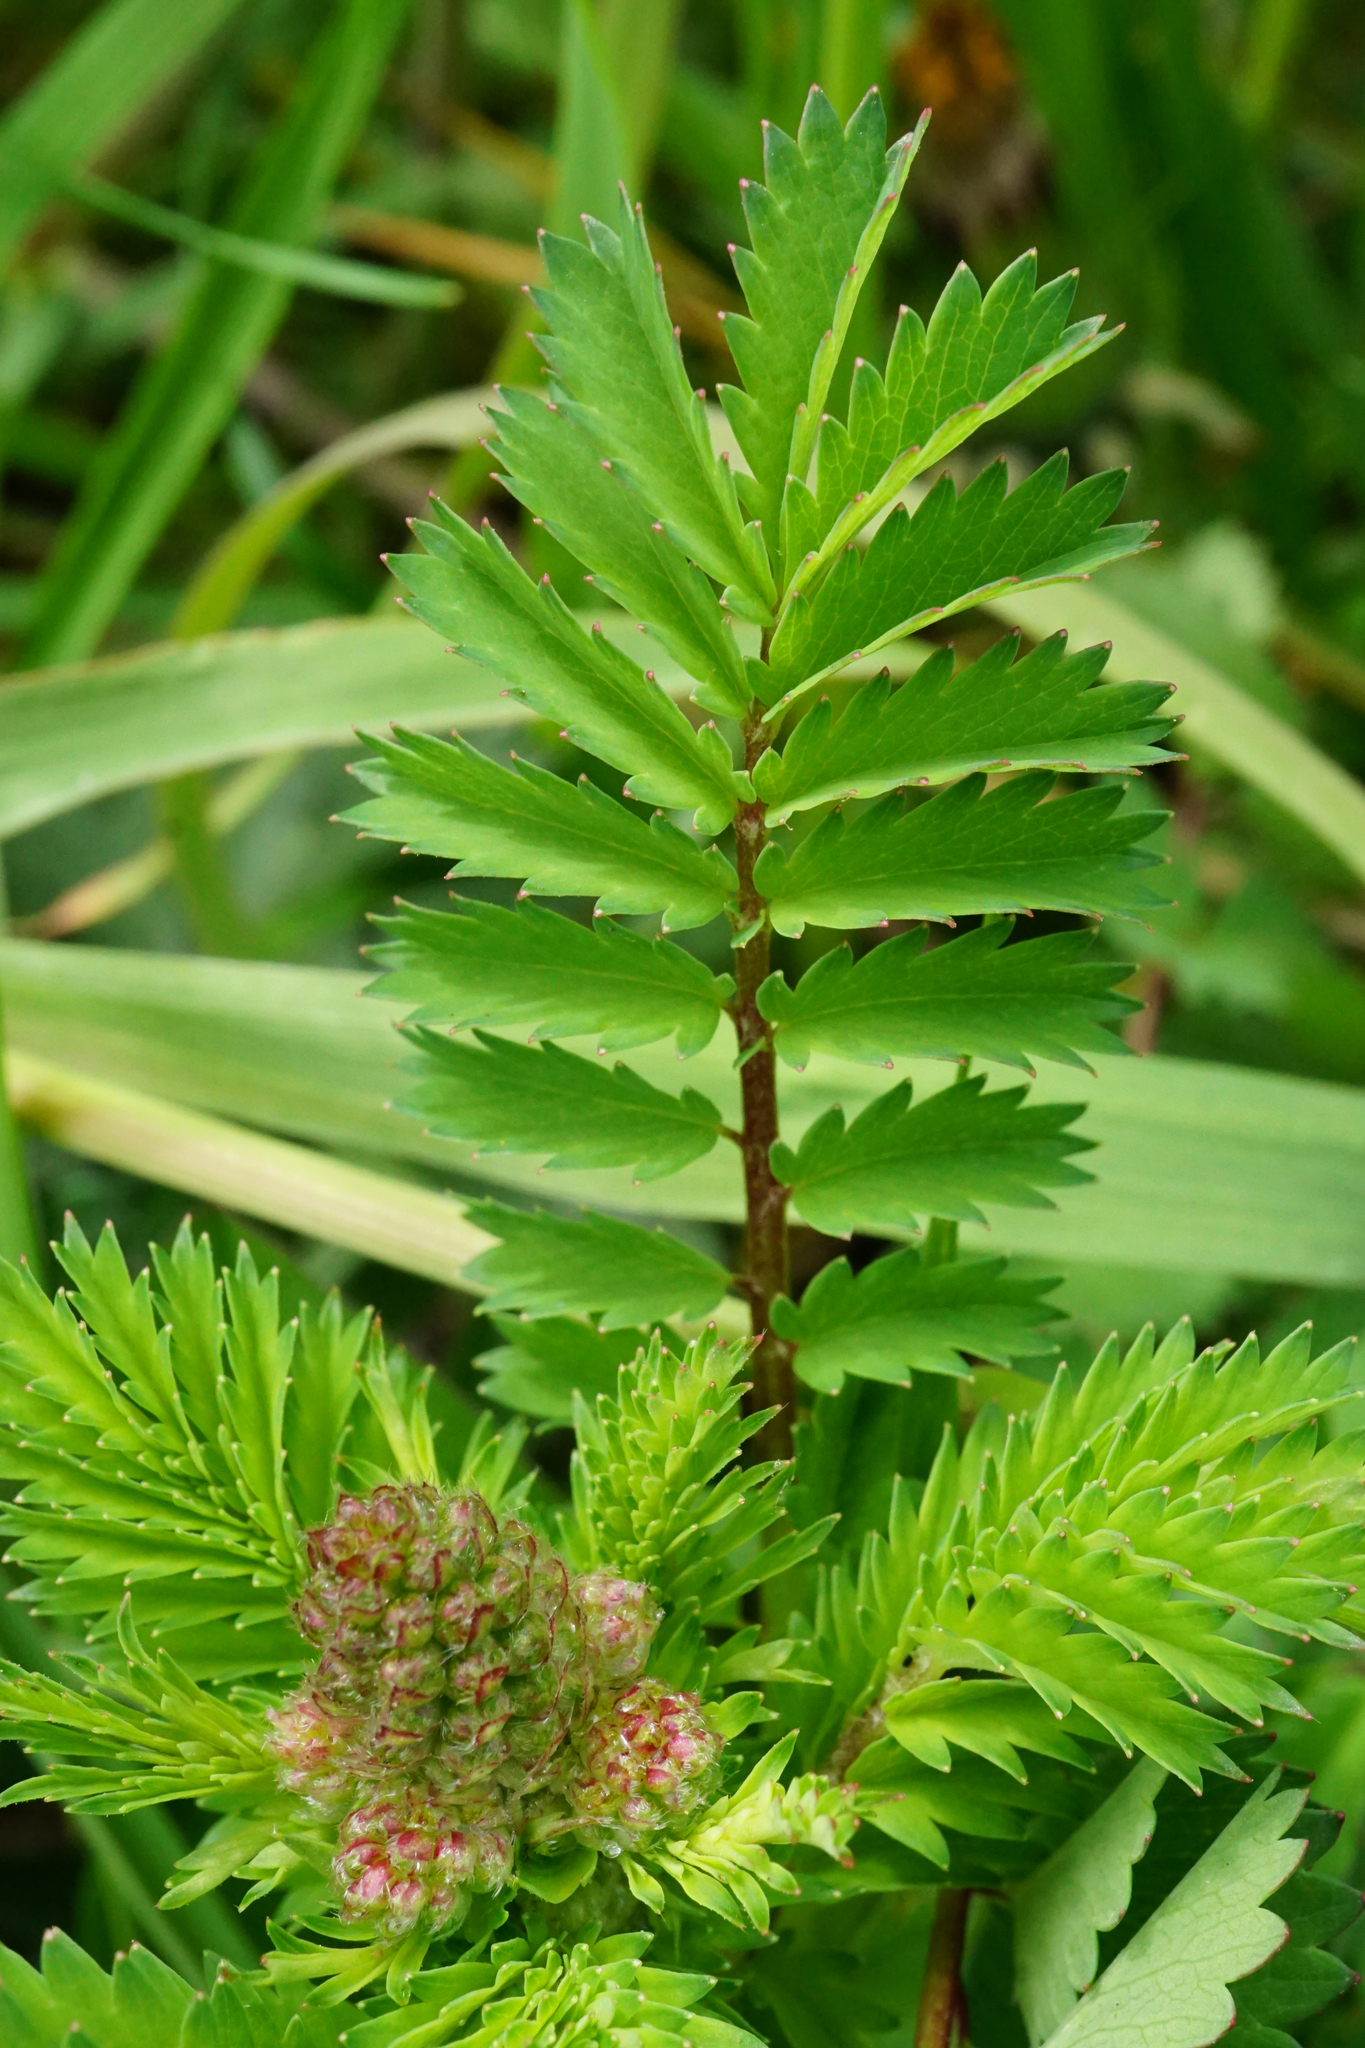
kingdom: Plantae
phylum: Tracheophyta
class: Magnoliopsida
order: Rosales
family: Rosaceae
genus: Poterium
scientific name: Poterium sanguisorba
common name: Salad burnet
